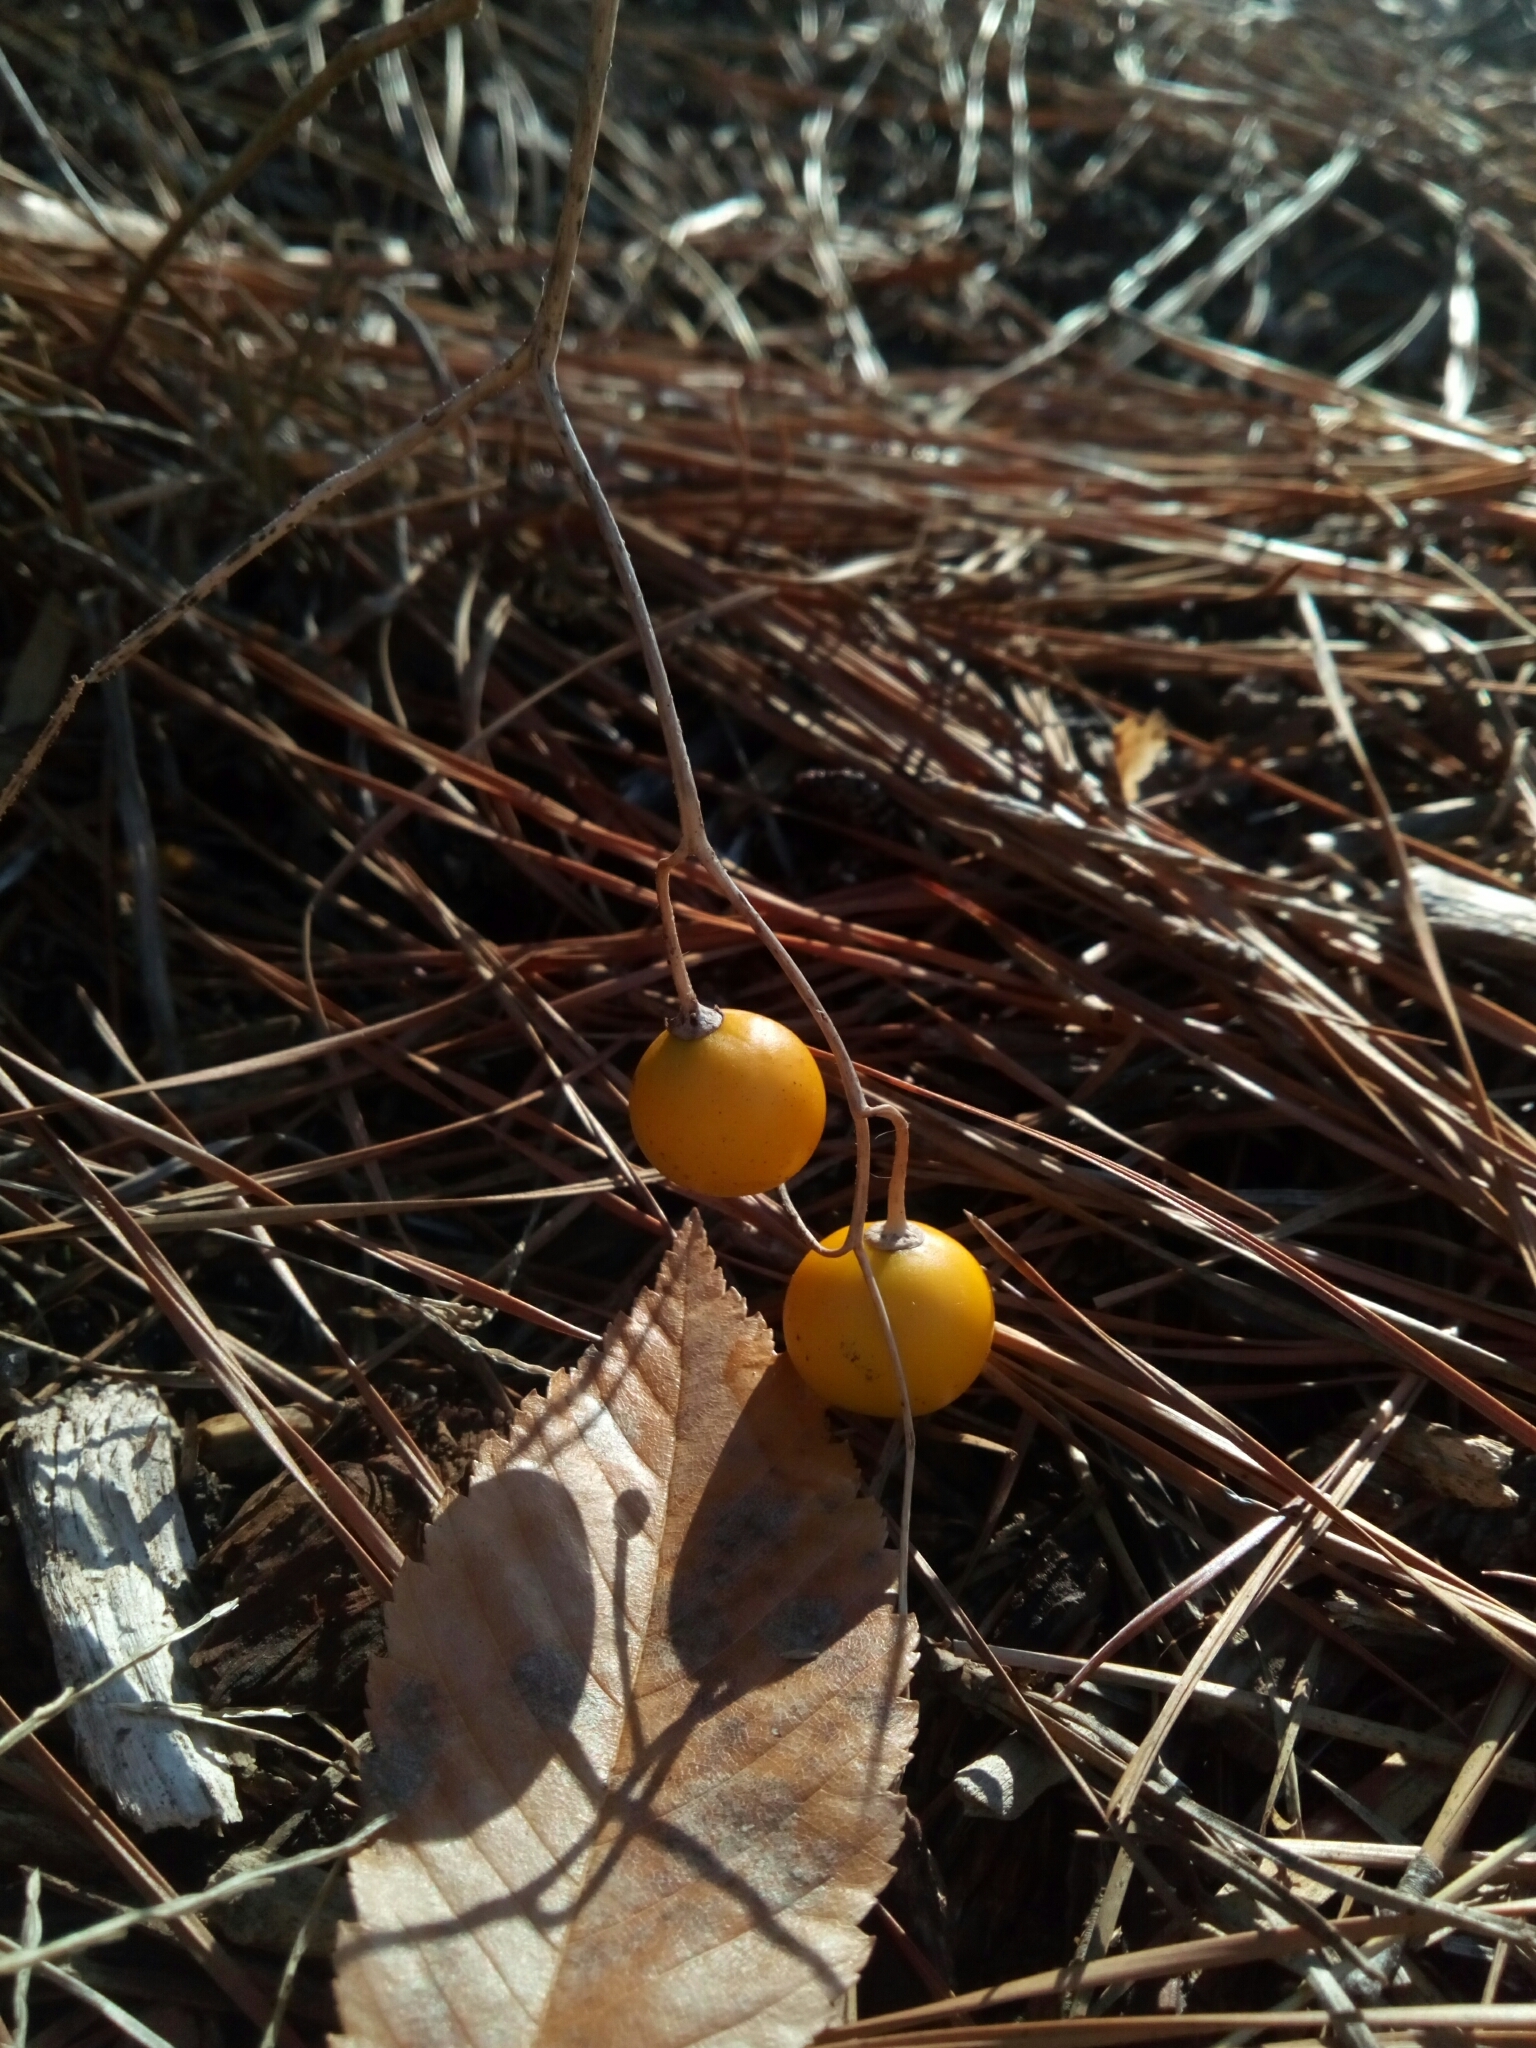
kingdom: Plantae
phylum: Tracheophyta
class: Magnoliopsida
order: Solanales
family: Solanaceae
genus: Solanum
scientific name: Solanum carolinense
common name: Horse-nettle
